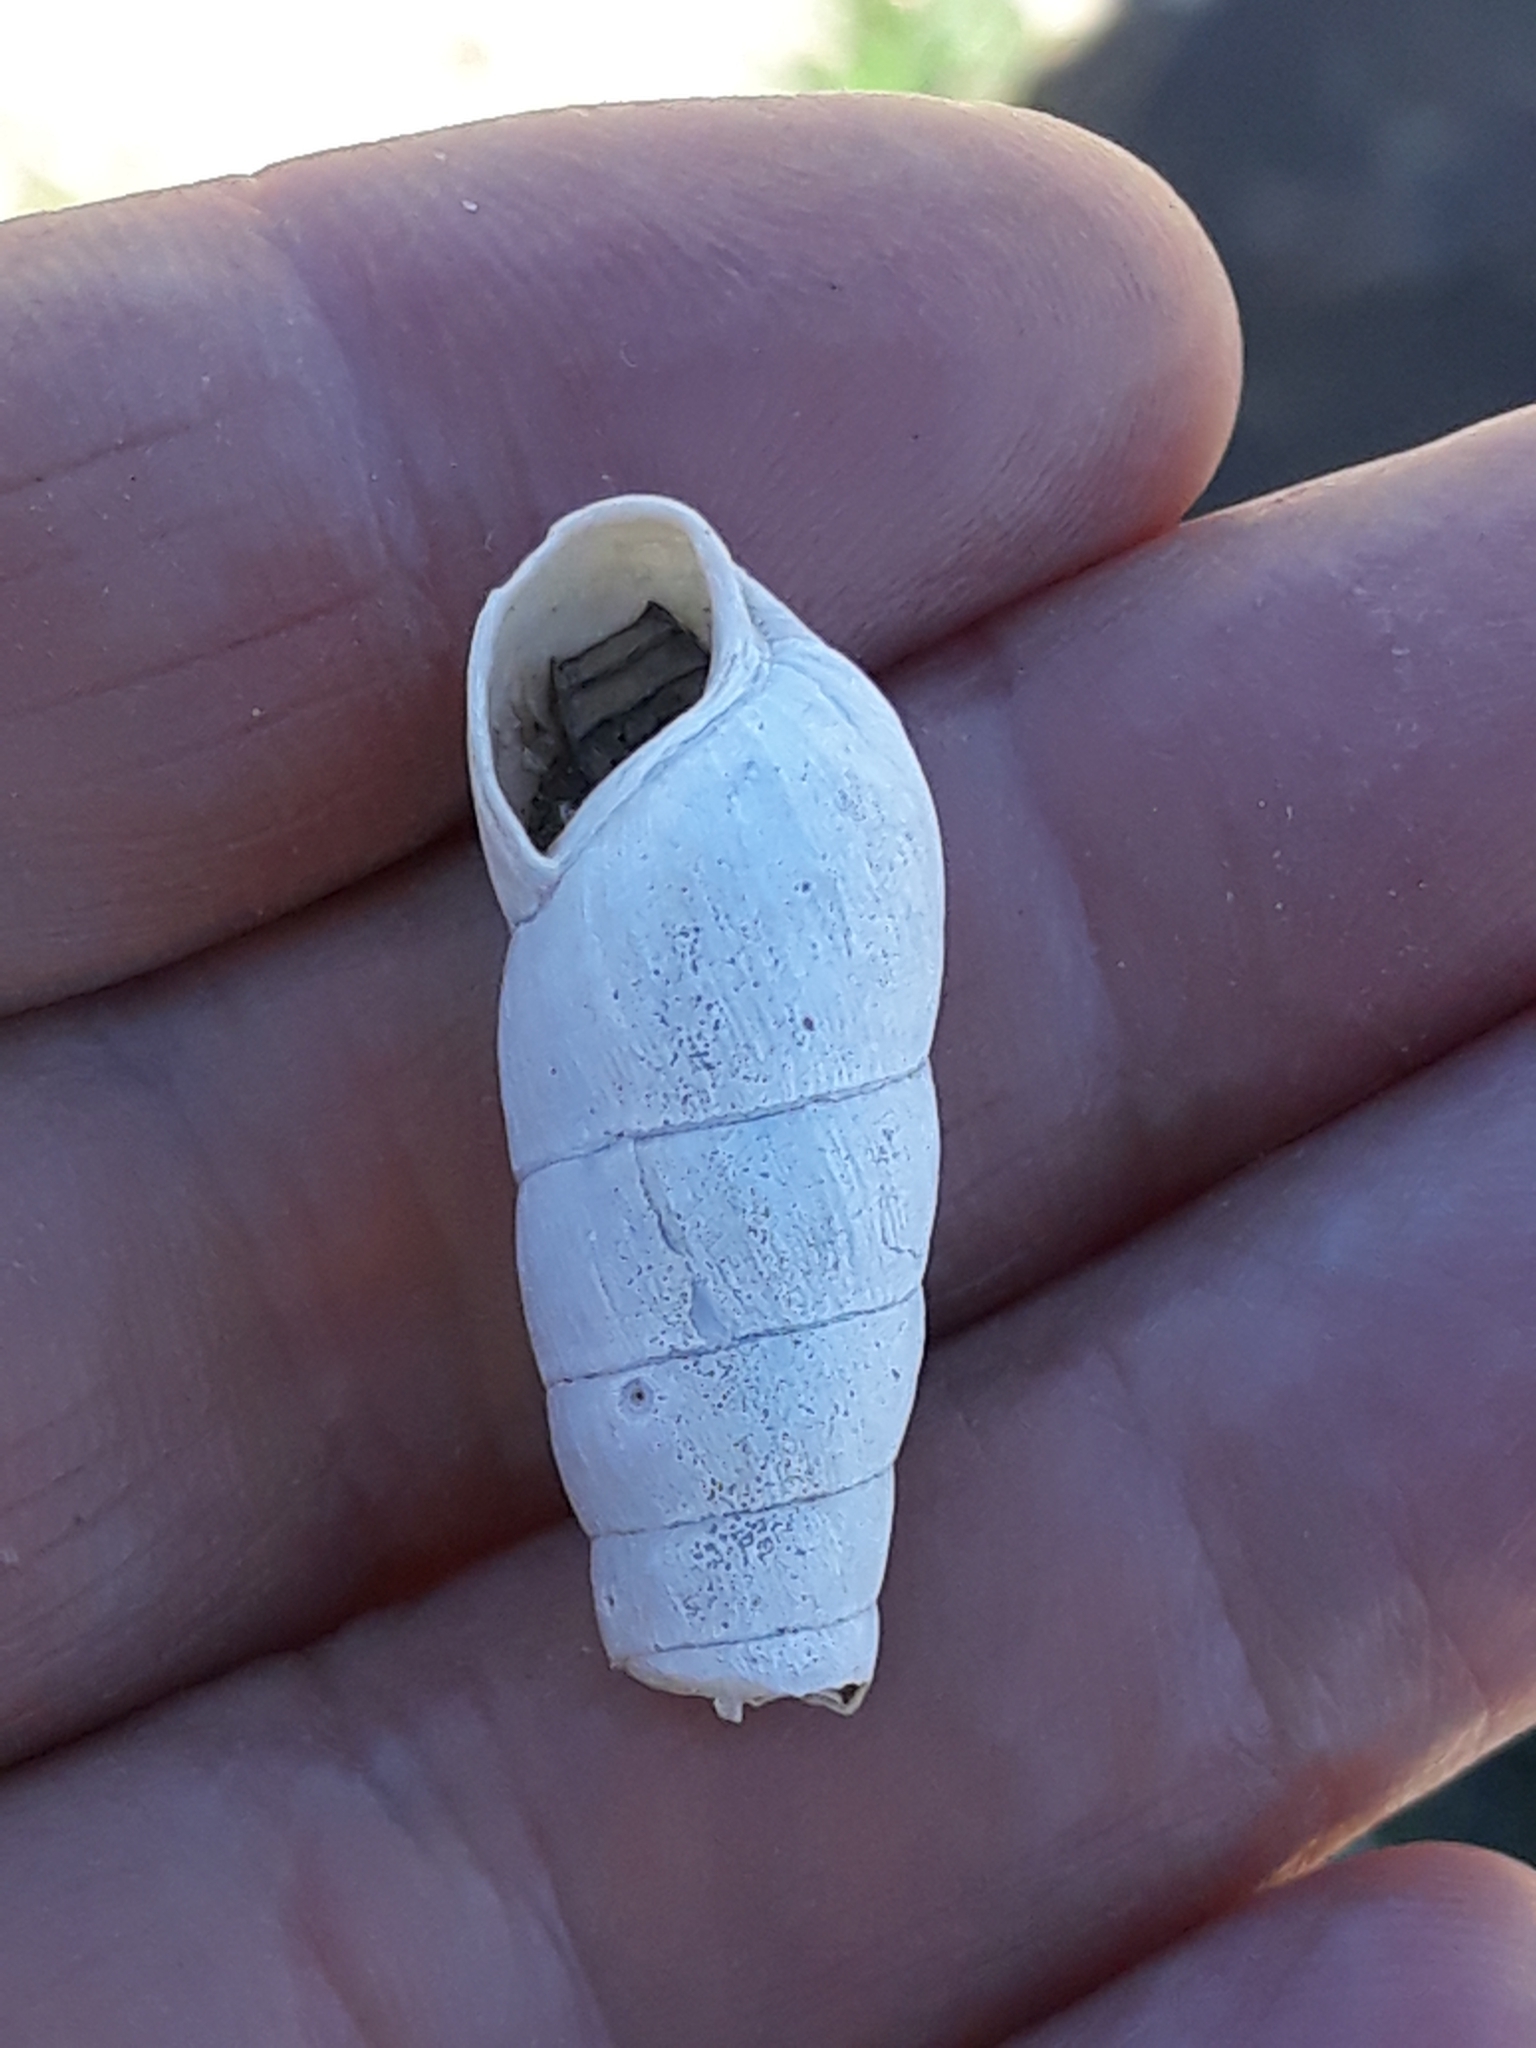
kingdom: Animalia
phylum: Mollusca
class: Gastropoda
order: Stylommatophora
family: Achatinidae
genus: Rumina
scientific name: Rumina decollata
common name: Decollate snail
